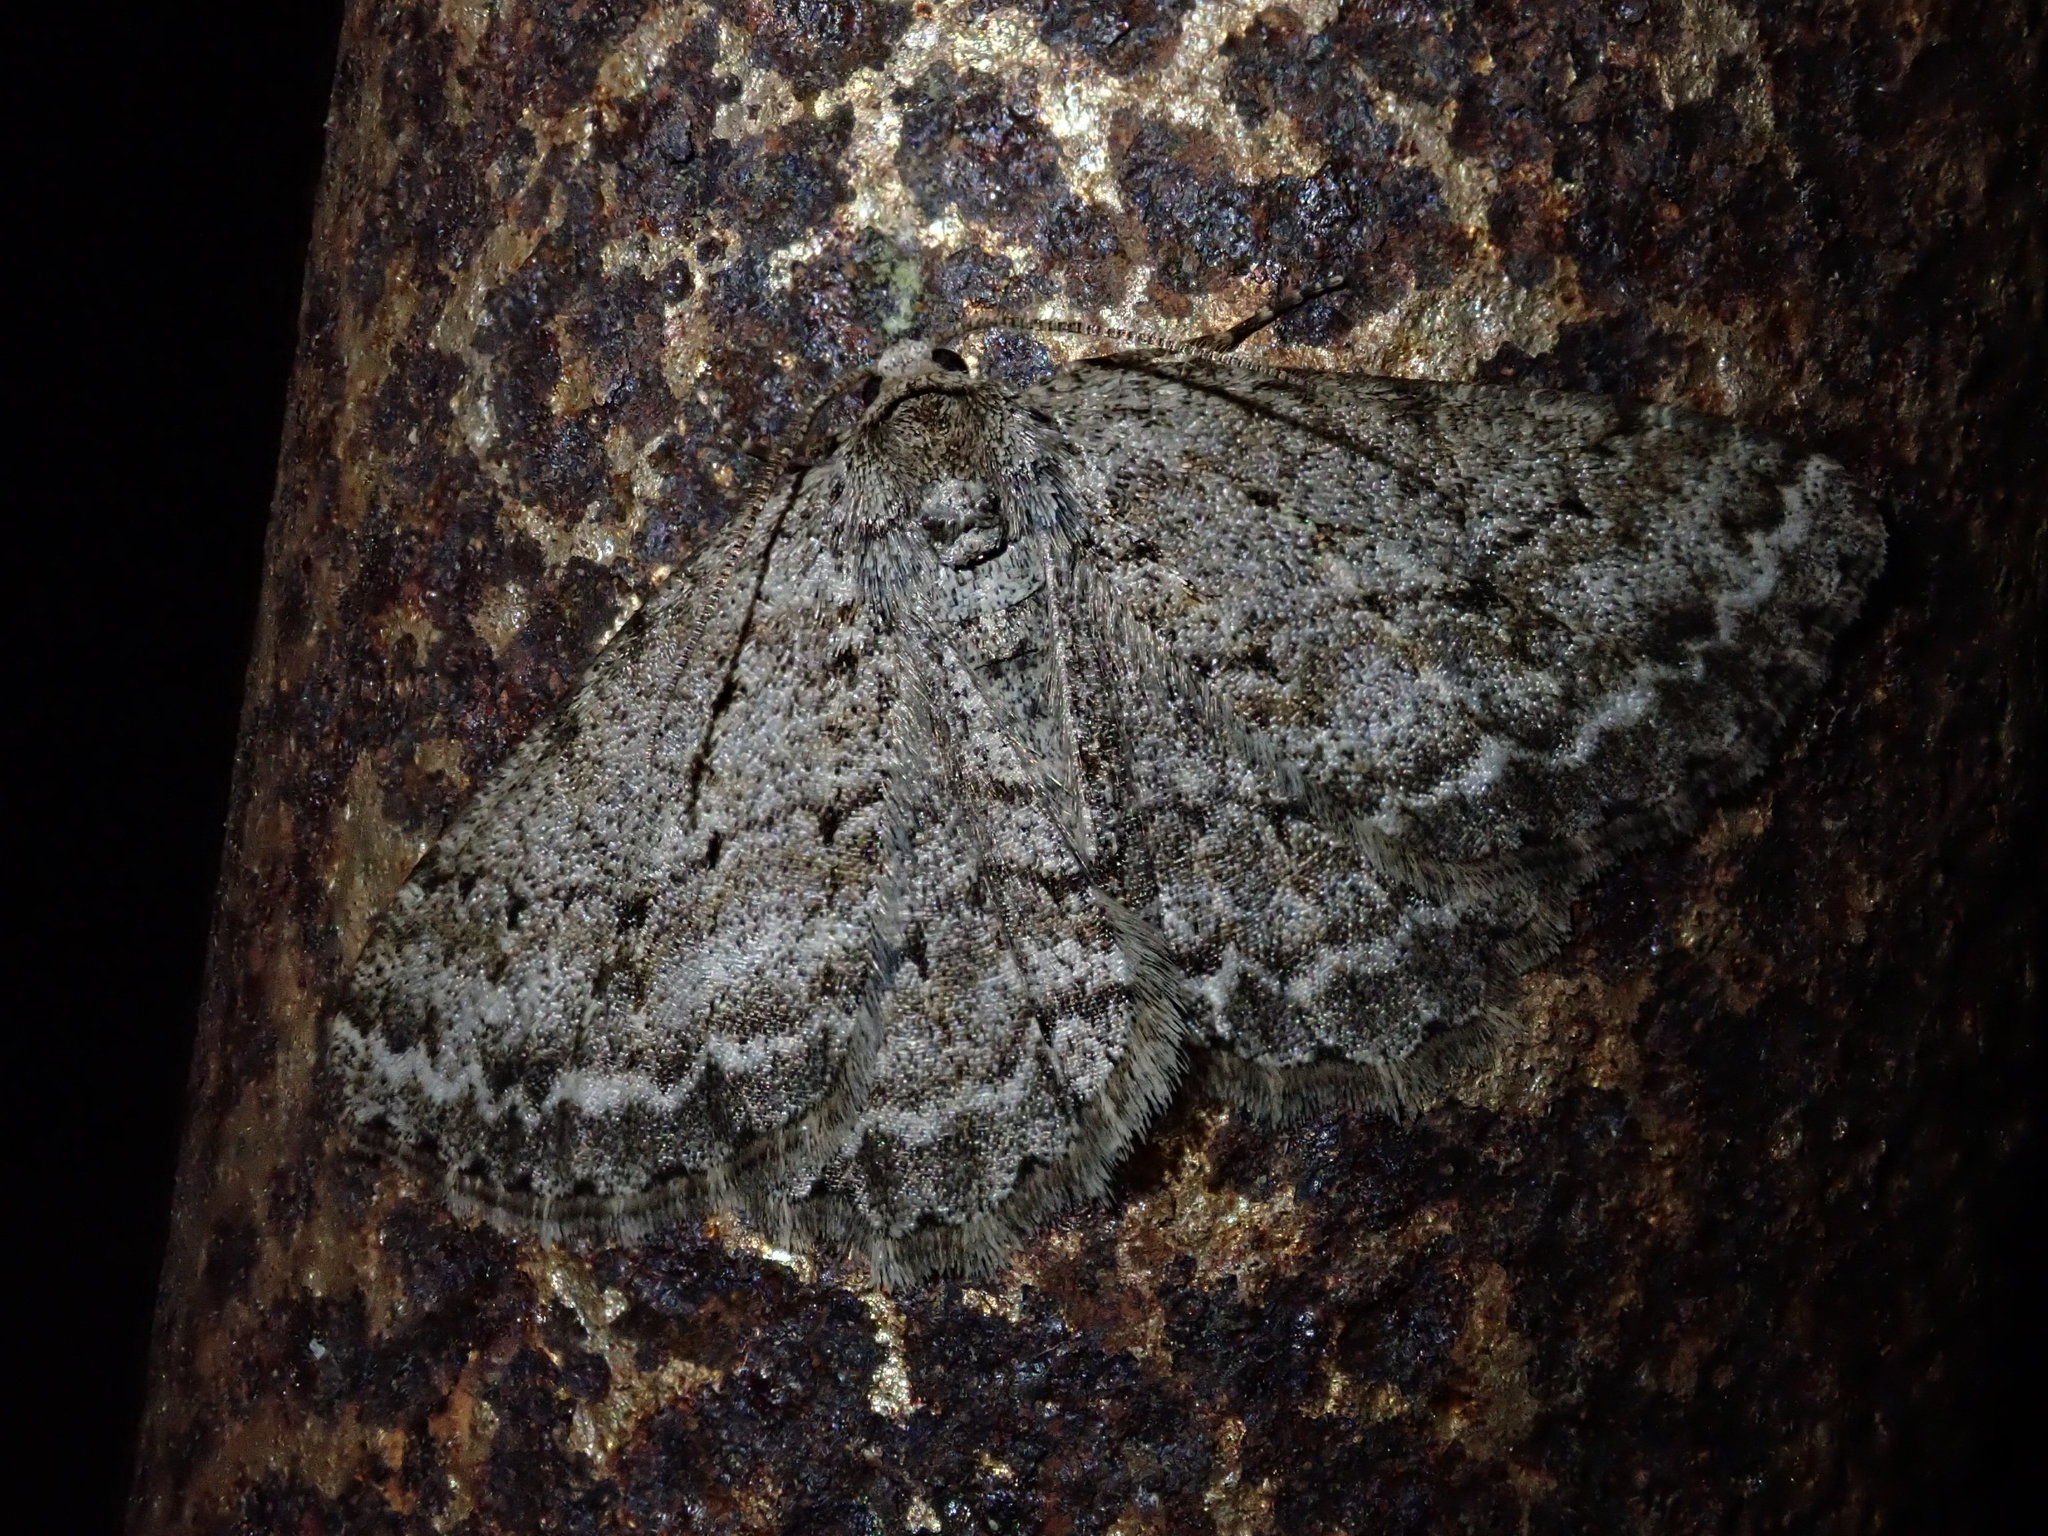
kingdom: Animalia
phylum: Arthropoda
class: Insecta
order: Lepidoptera
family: Geometridae
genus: Ectropis
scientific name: Ectropis crepuscularia
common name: Engrailed
